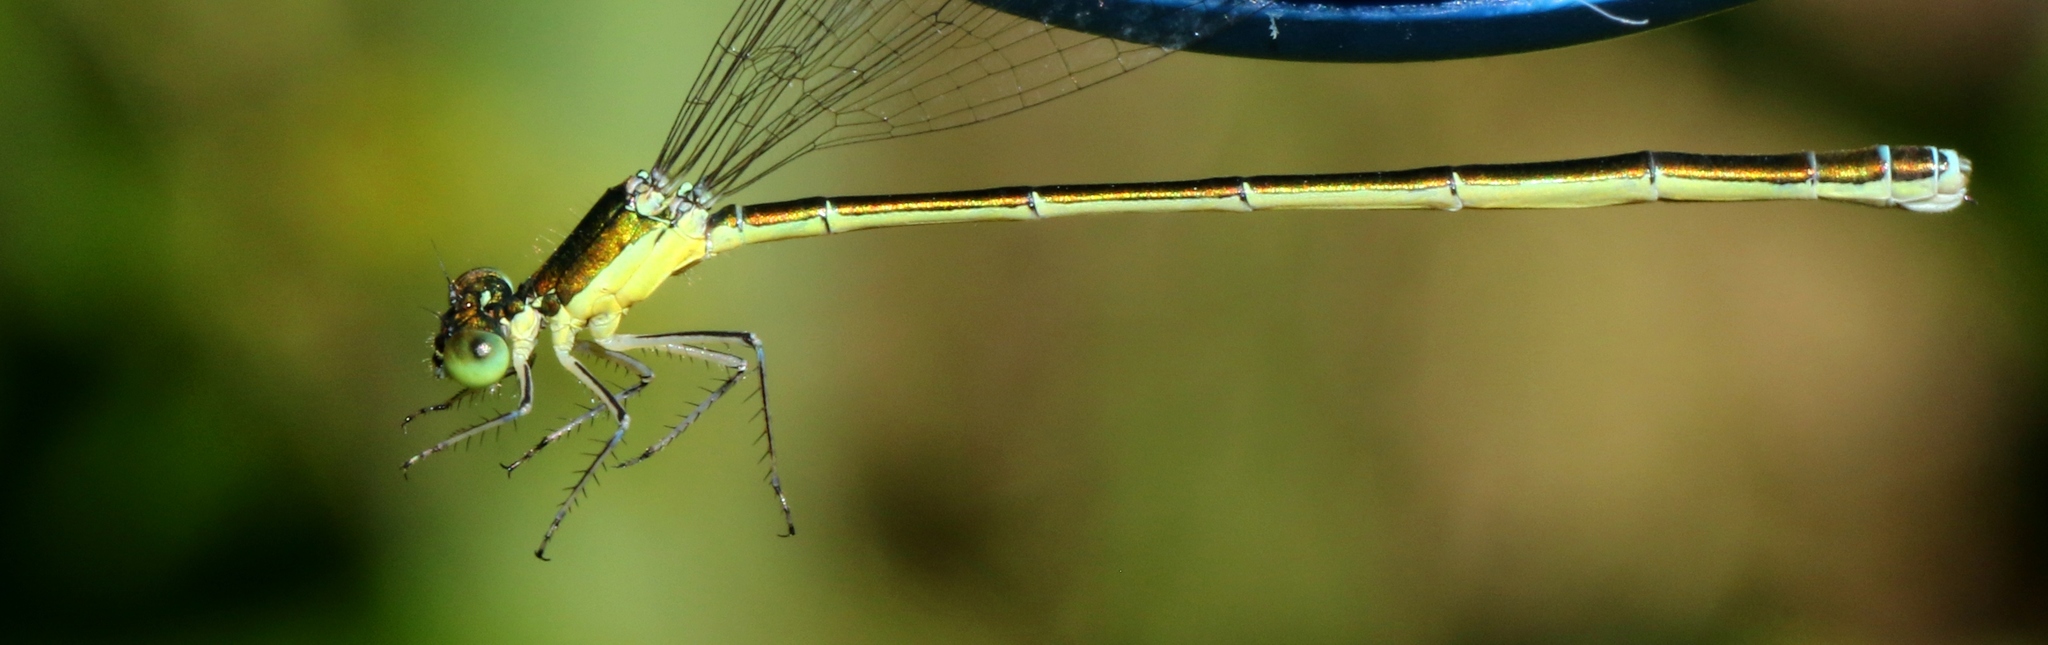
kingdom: Animalia
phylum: Arthropoda
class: Insecta
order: Odonata
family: Coenagrionidae
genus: Nehalennia
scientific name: Nehalennia irene
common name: Sedge sprite
